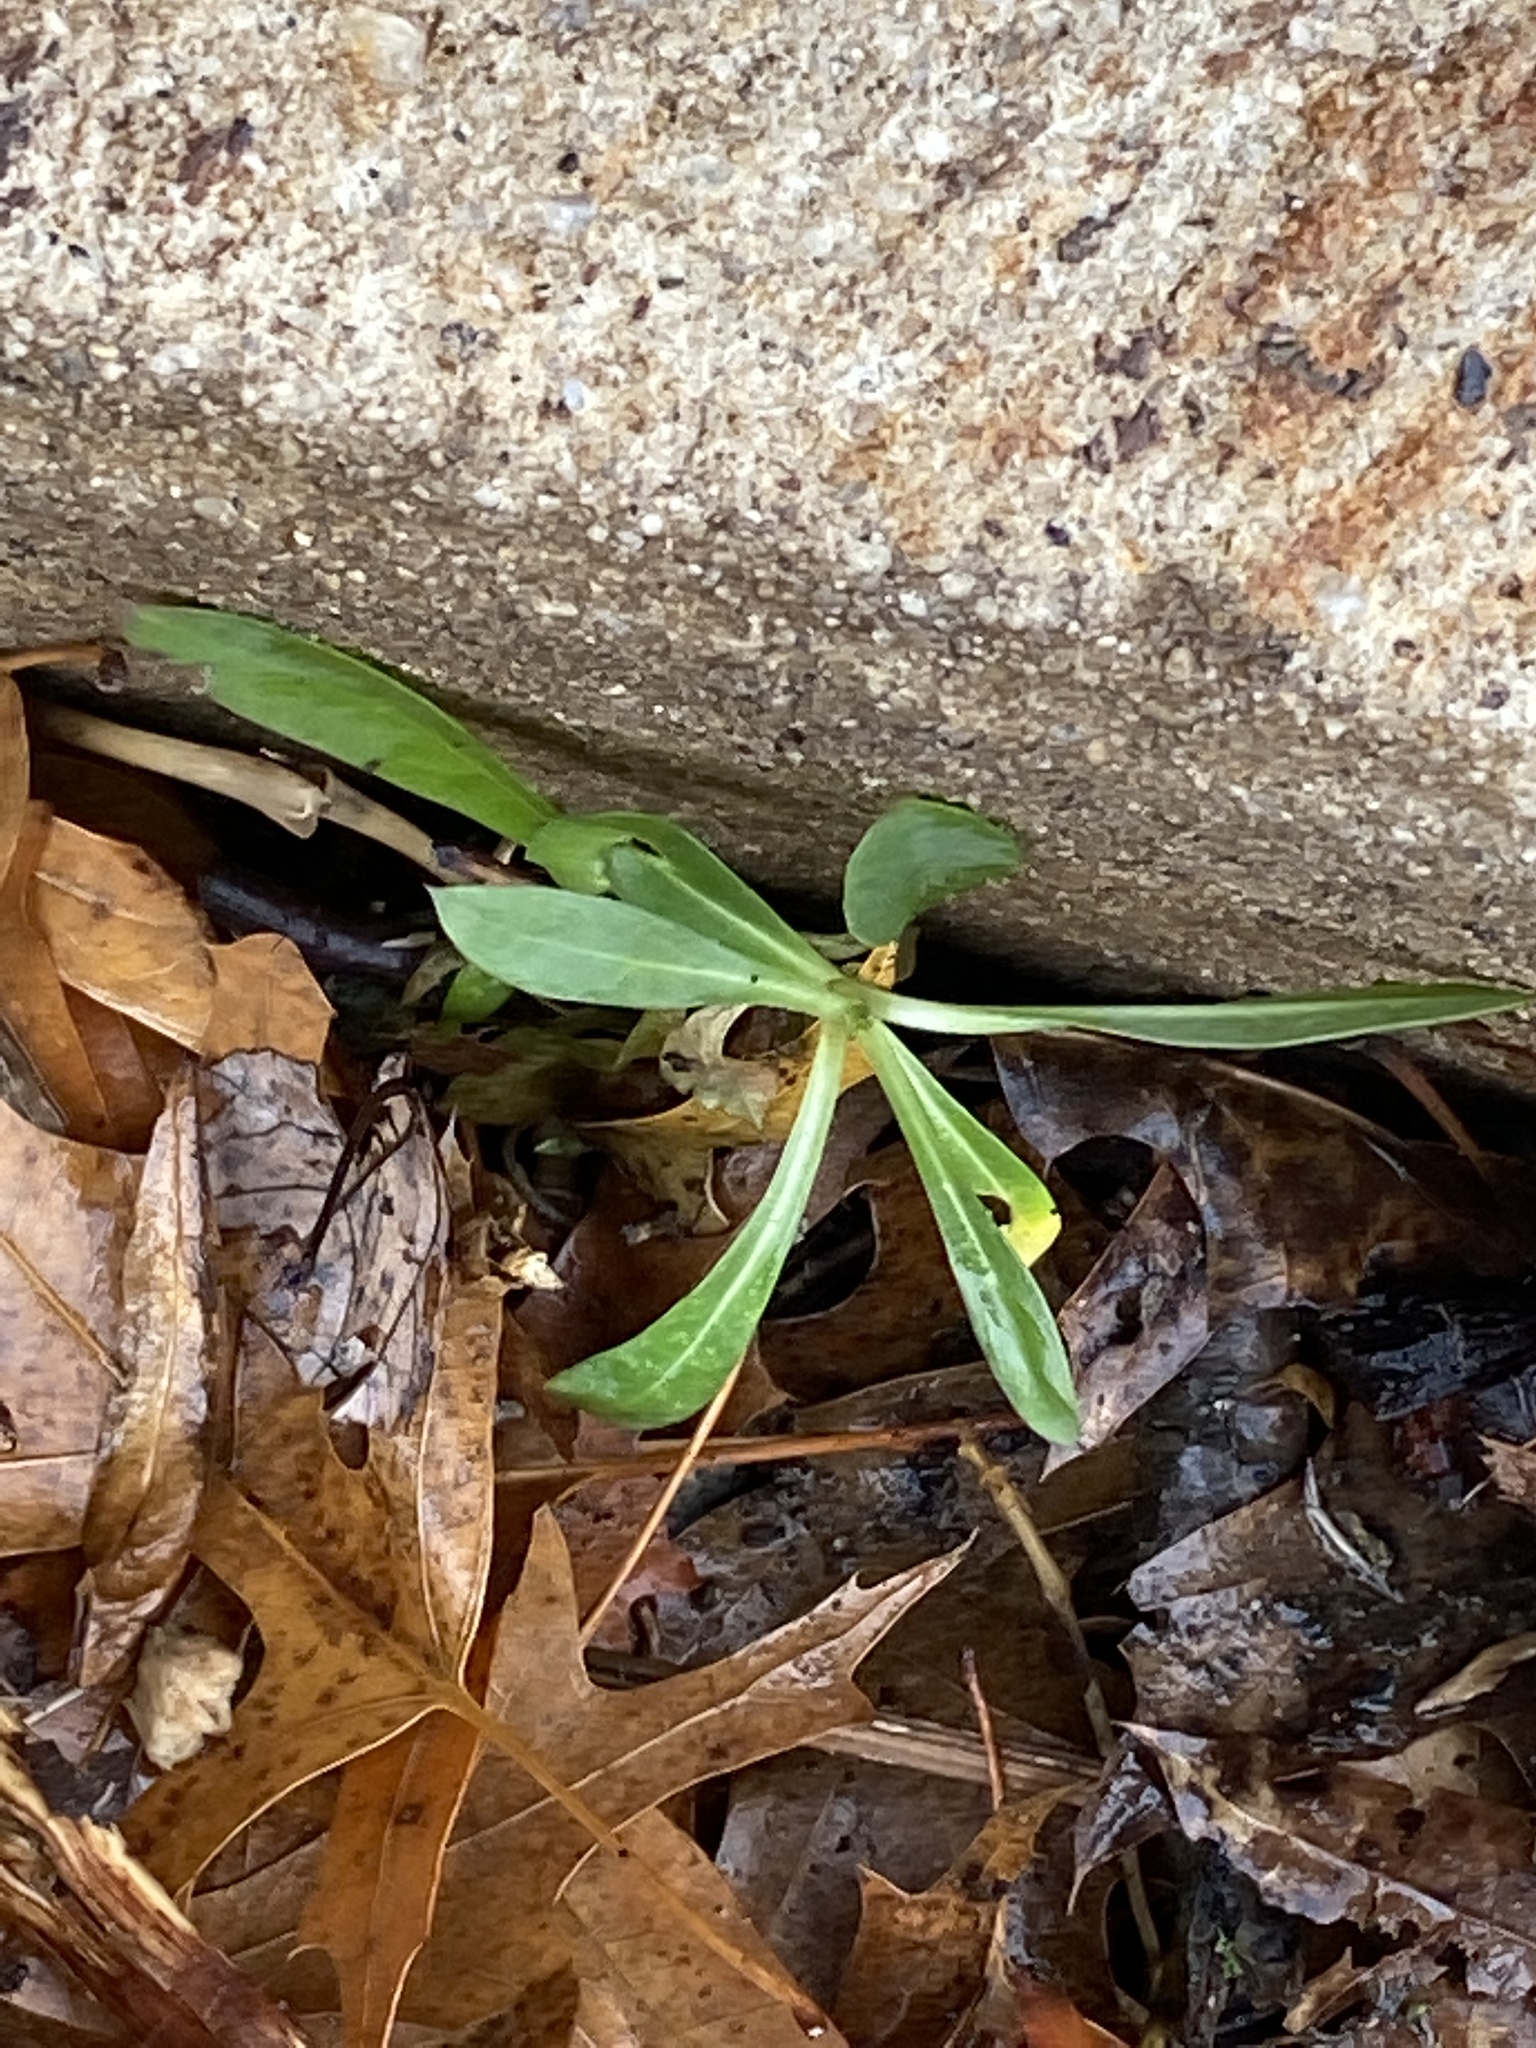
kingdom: Plantae
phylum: Tracheophyta
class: Magnoliopsida
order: Caryophyllales
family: Caryophyllaceae
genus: Silene
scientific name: Silene vulgaris
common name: Bladder campion
